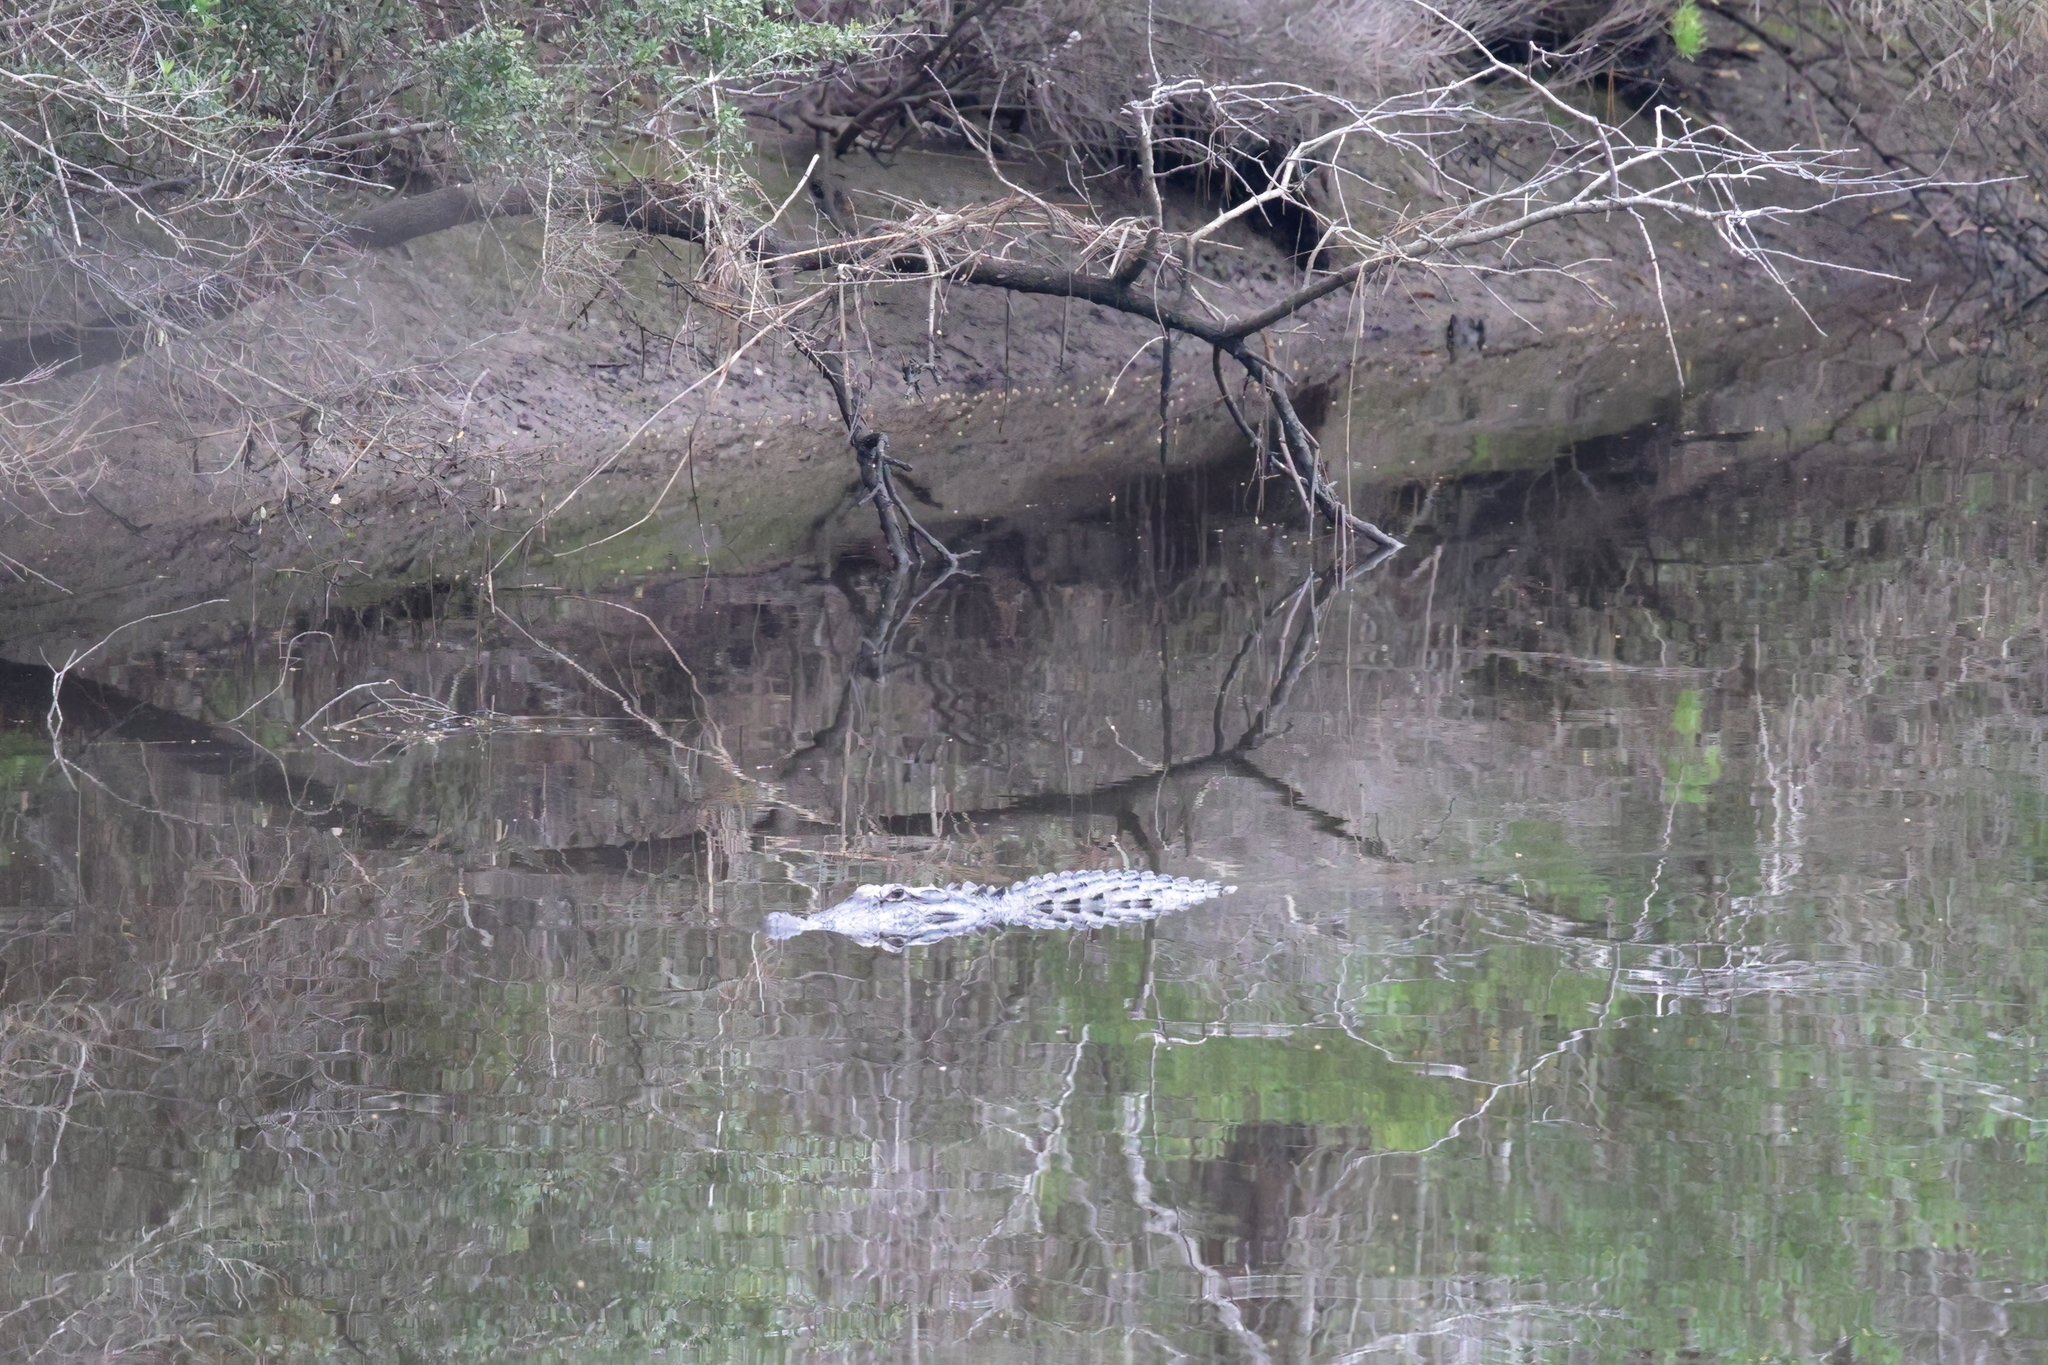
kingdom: Animalia
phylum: Chordata
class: Crocodylia
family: Alligatoridae
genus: Alligator
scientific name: Alligator mississippiensis
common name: American alligator
